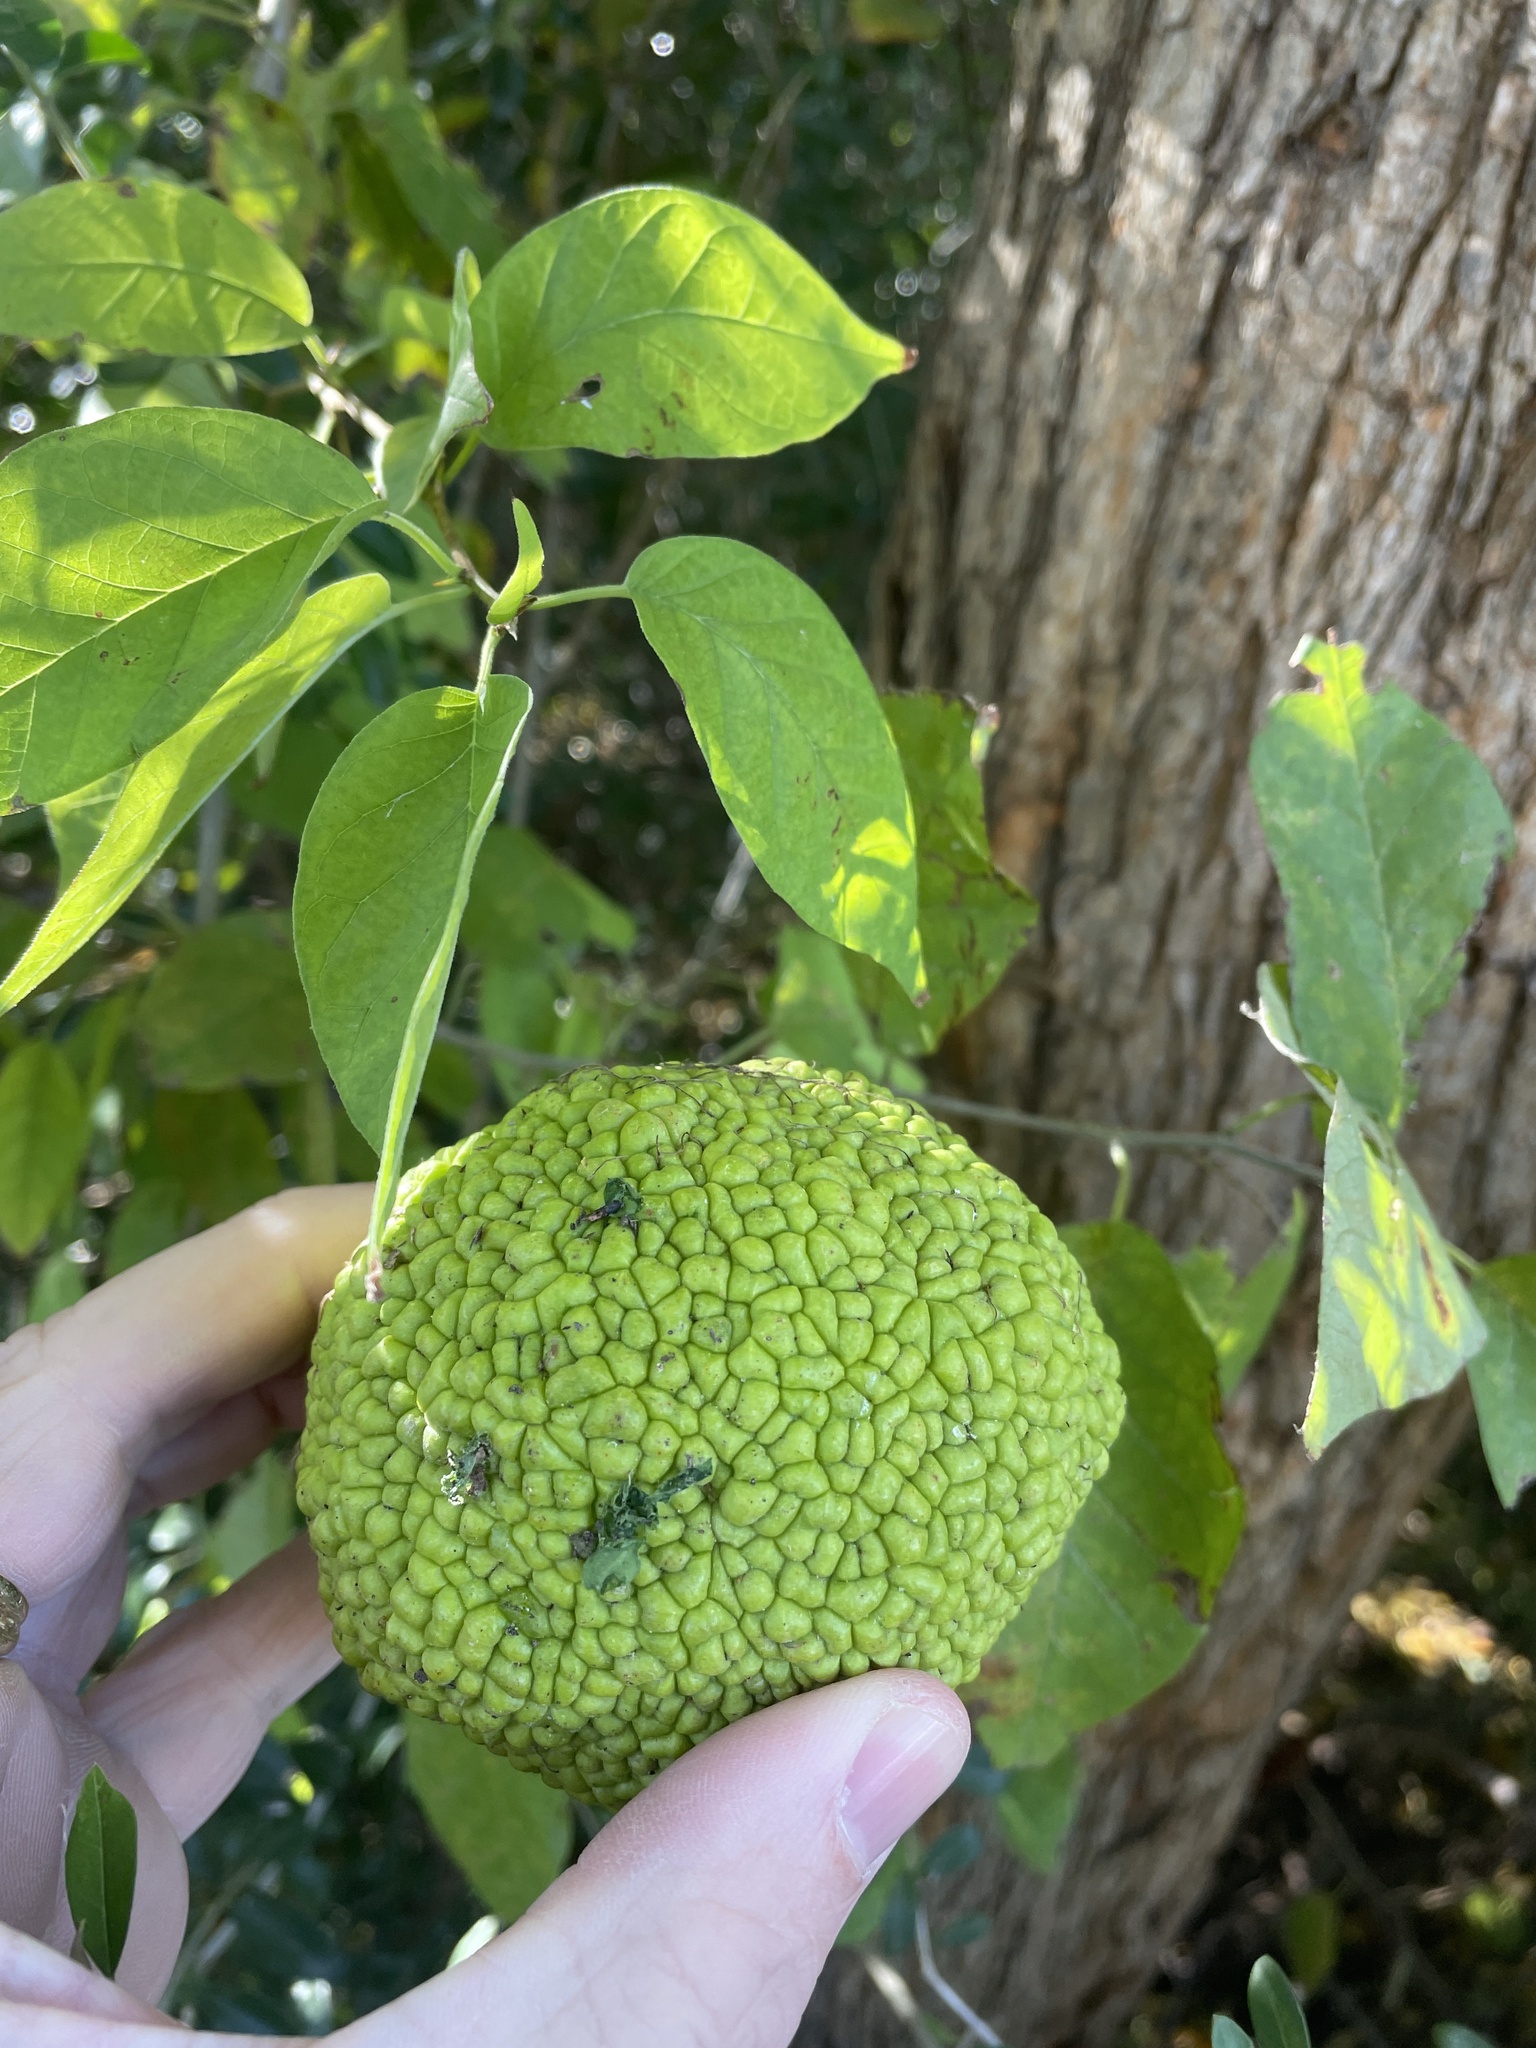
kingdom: Plantae
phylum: Tracheophyta
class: Magnoliopsida
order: Rosales
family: Moraceae
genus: Maclura
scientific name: Maclura pomifera
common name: Osage-orange
